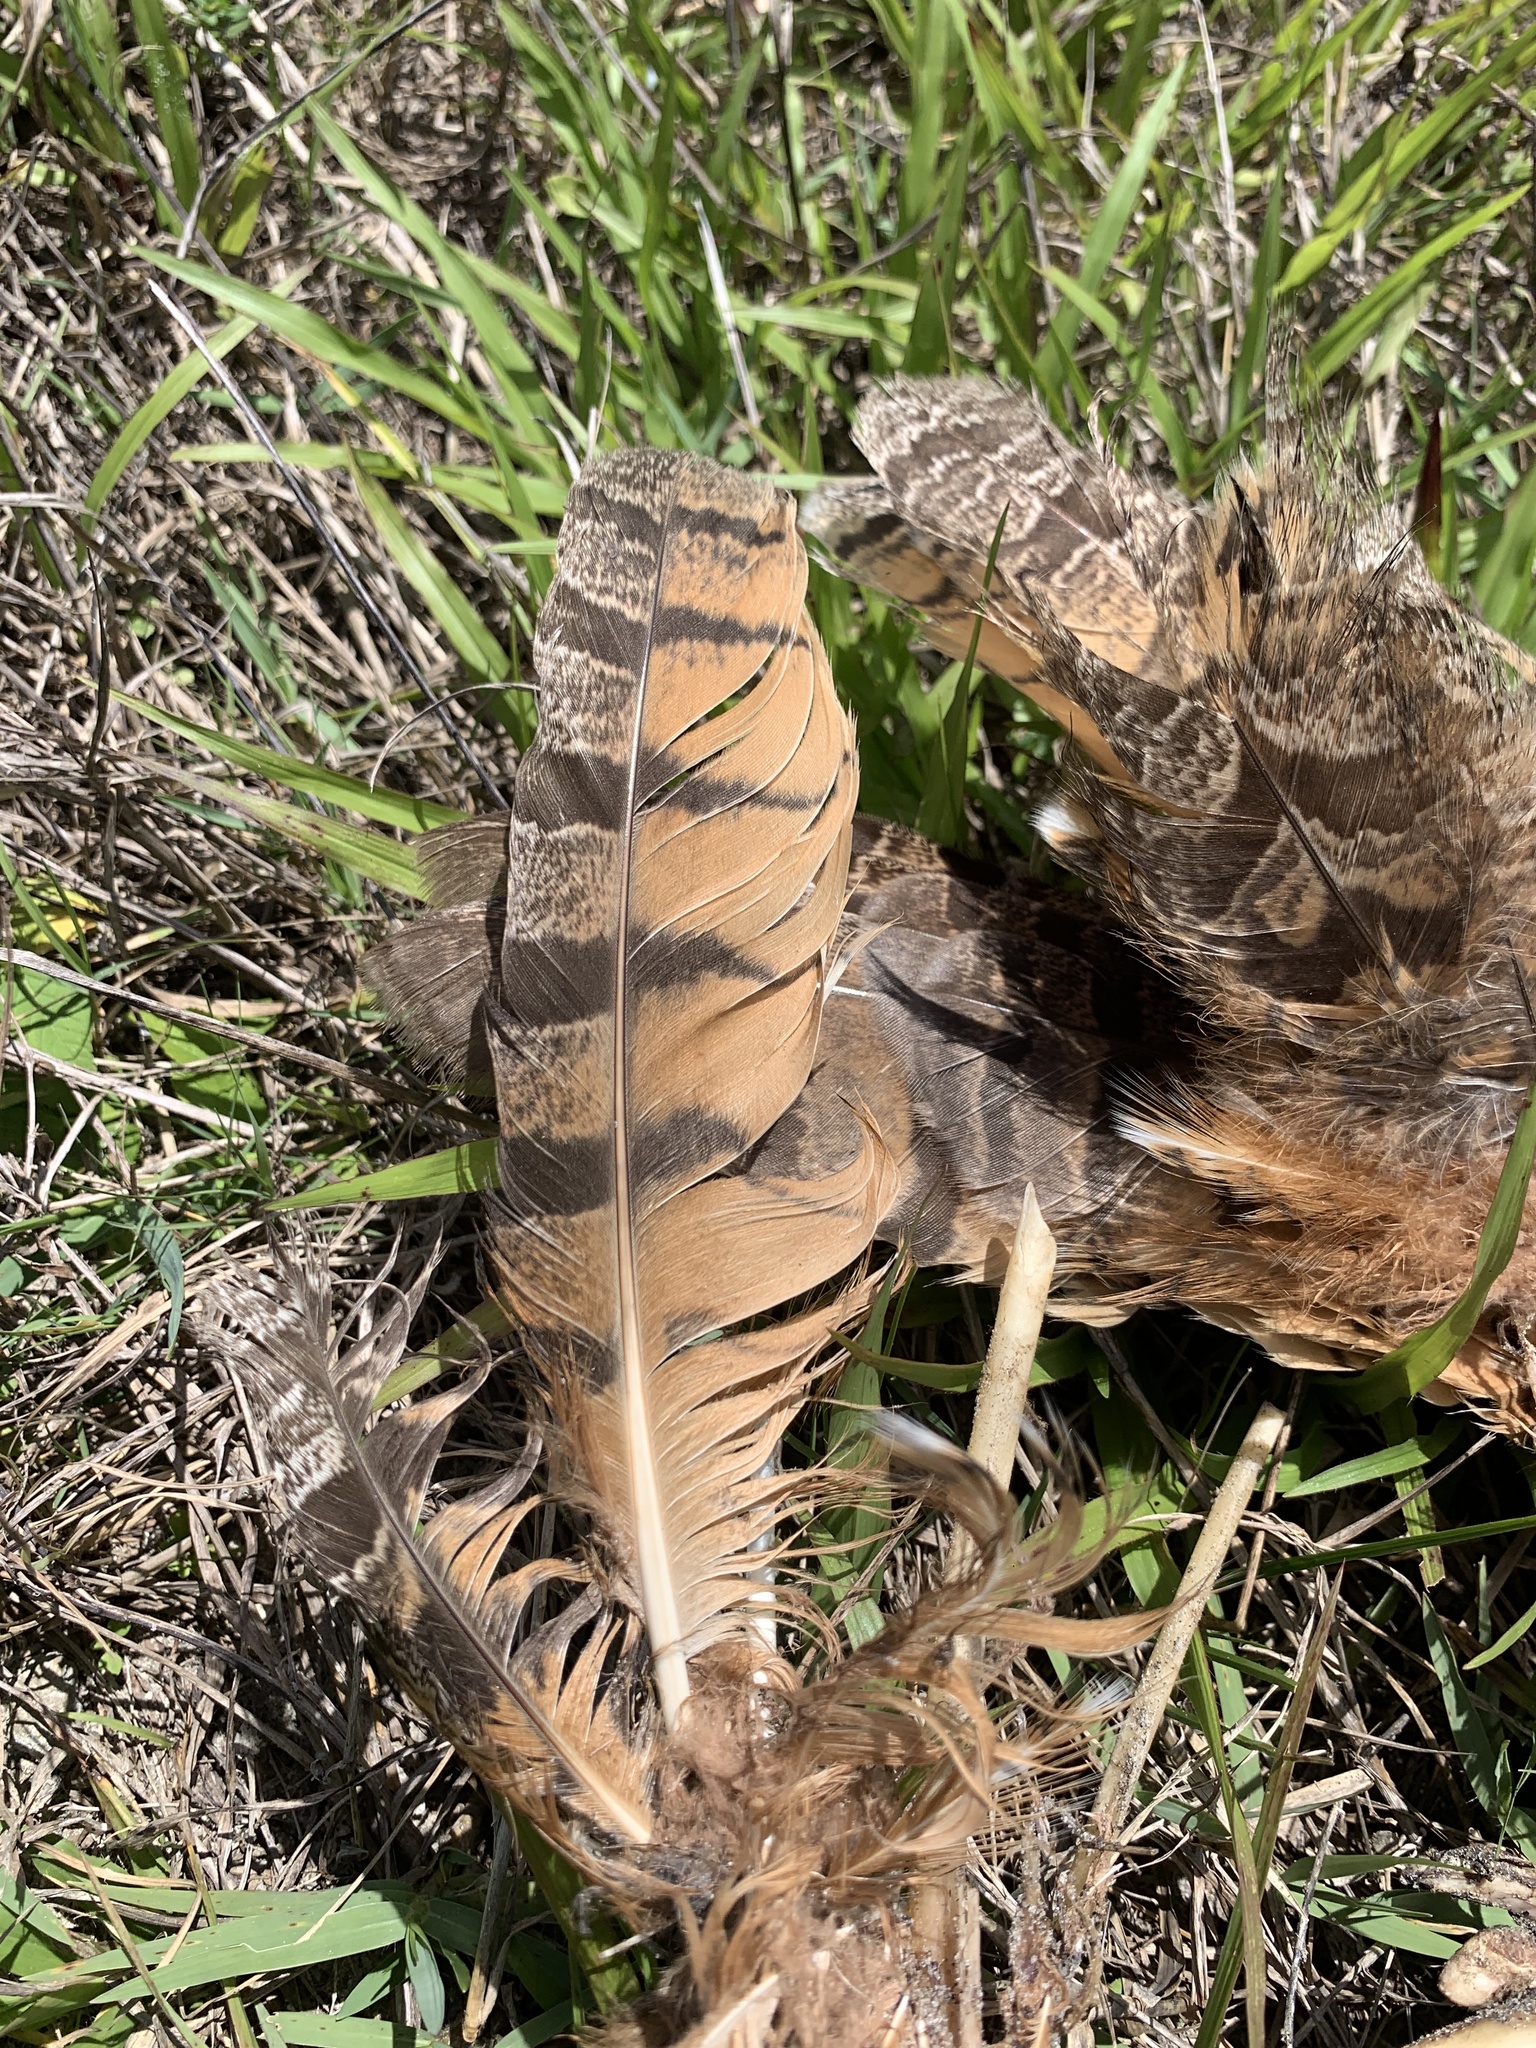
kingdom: Animalia
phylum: Chordata
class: Aves
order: Strigiformes
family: Strigidae
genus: Bubo
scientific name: Bubo virginianus
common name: Great horned owl
